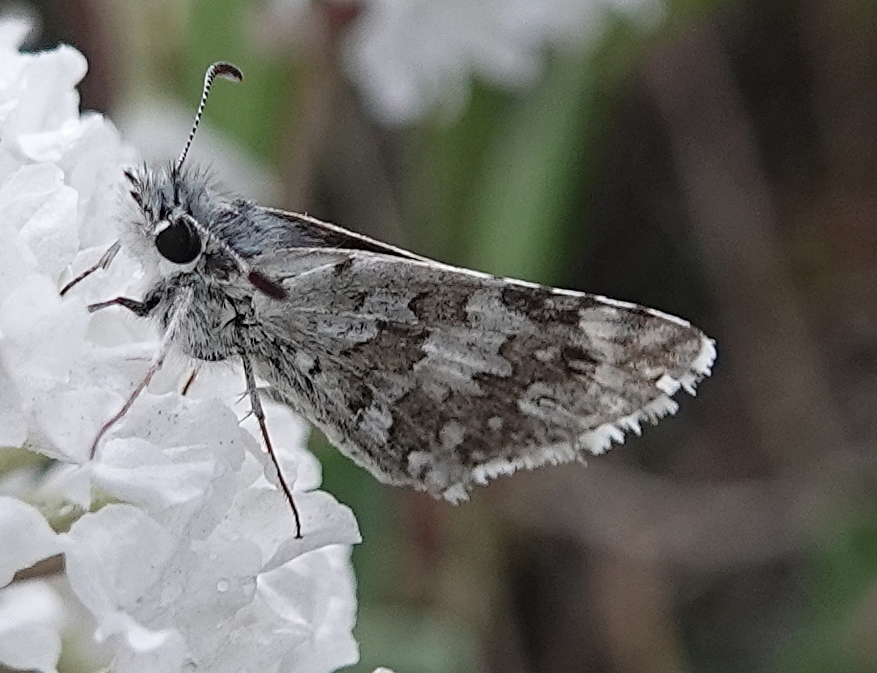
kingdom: Animalia
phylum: Arthropoda
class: Insecta
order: Lepidoptera
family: Hesperiidae
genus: Burnsius
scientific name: Burnsius communis
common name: Common checkered-skipper
